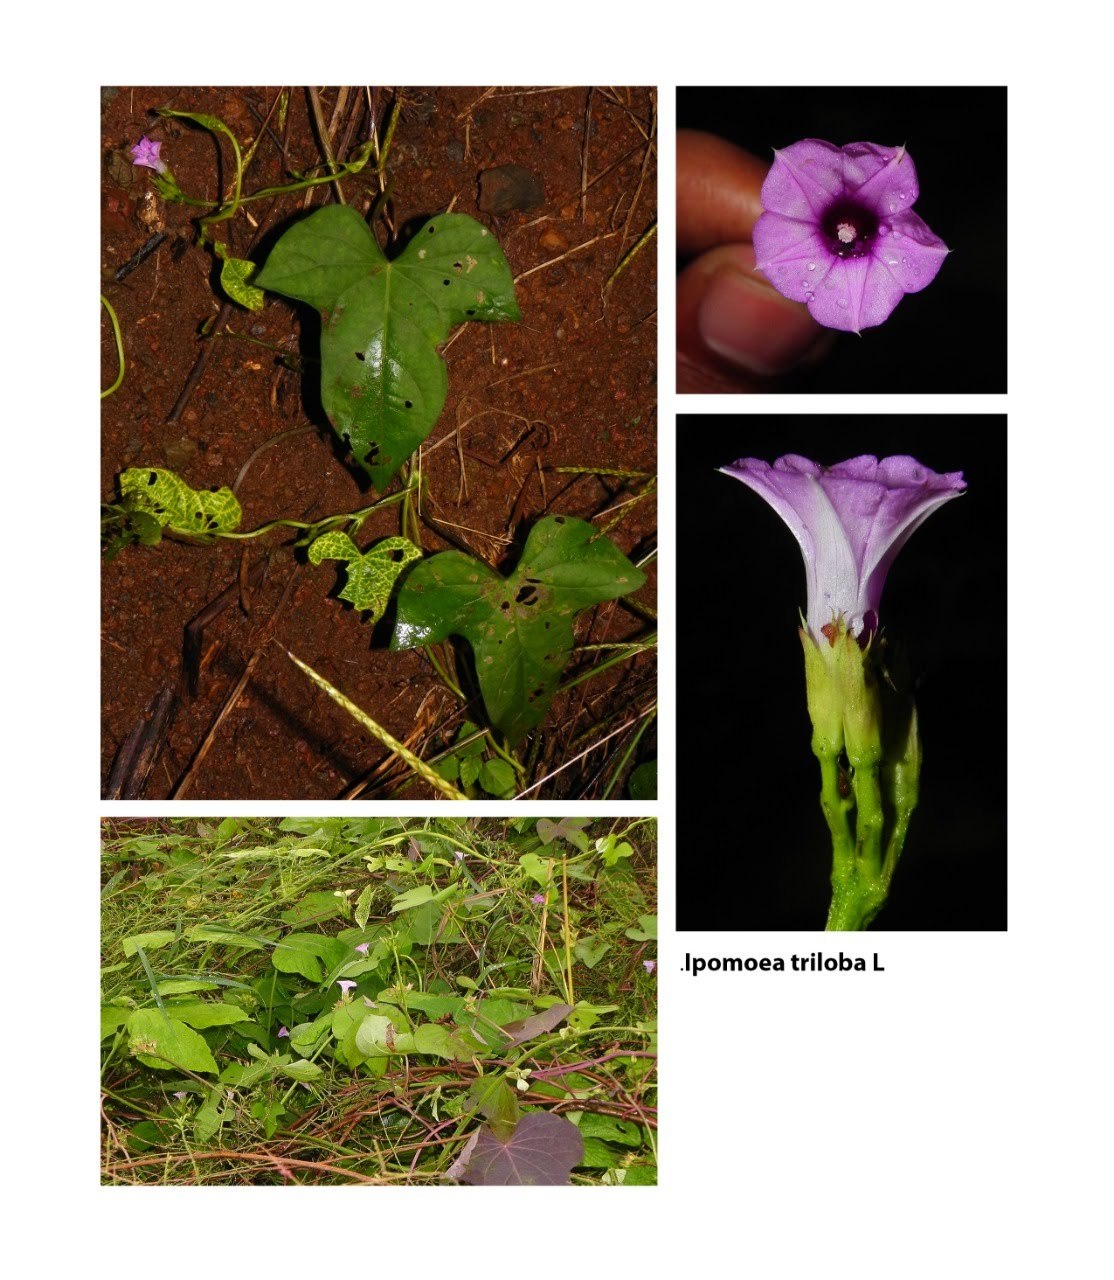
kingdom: Plantae
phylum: Tracheophyta
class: Magnoliopsida
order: Solanales
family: Convolvulaceae
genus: Ipomoea
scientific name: Ipomoea triloba
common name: Little-bell
